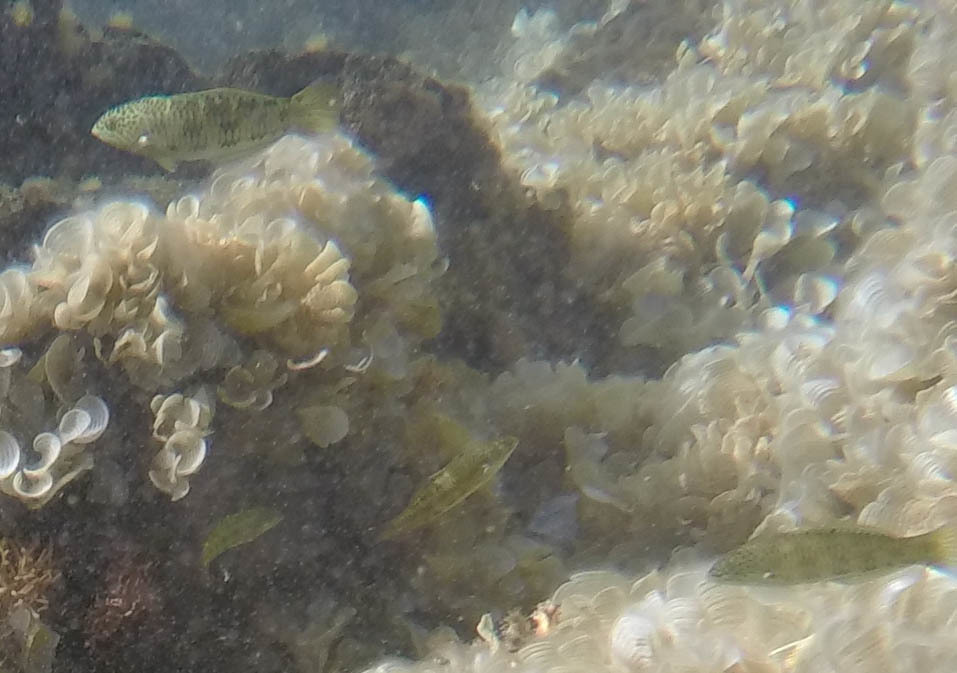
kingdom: Animalia
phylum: Chordata
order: Perciformes
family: Labridae
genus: Thalassoma
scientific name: Thalassoma trilobatum
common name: Christmas wrasse
